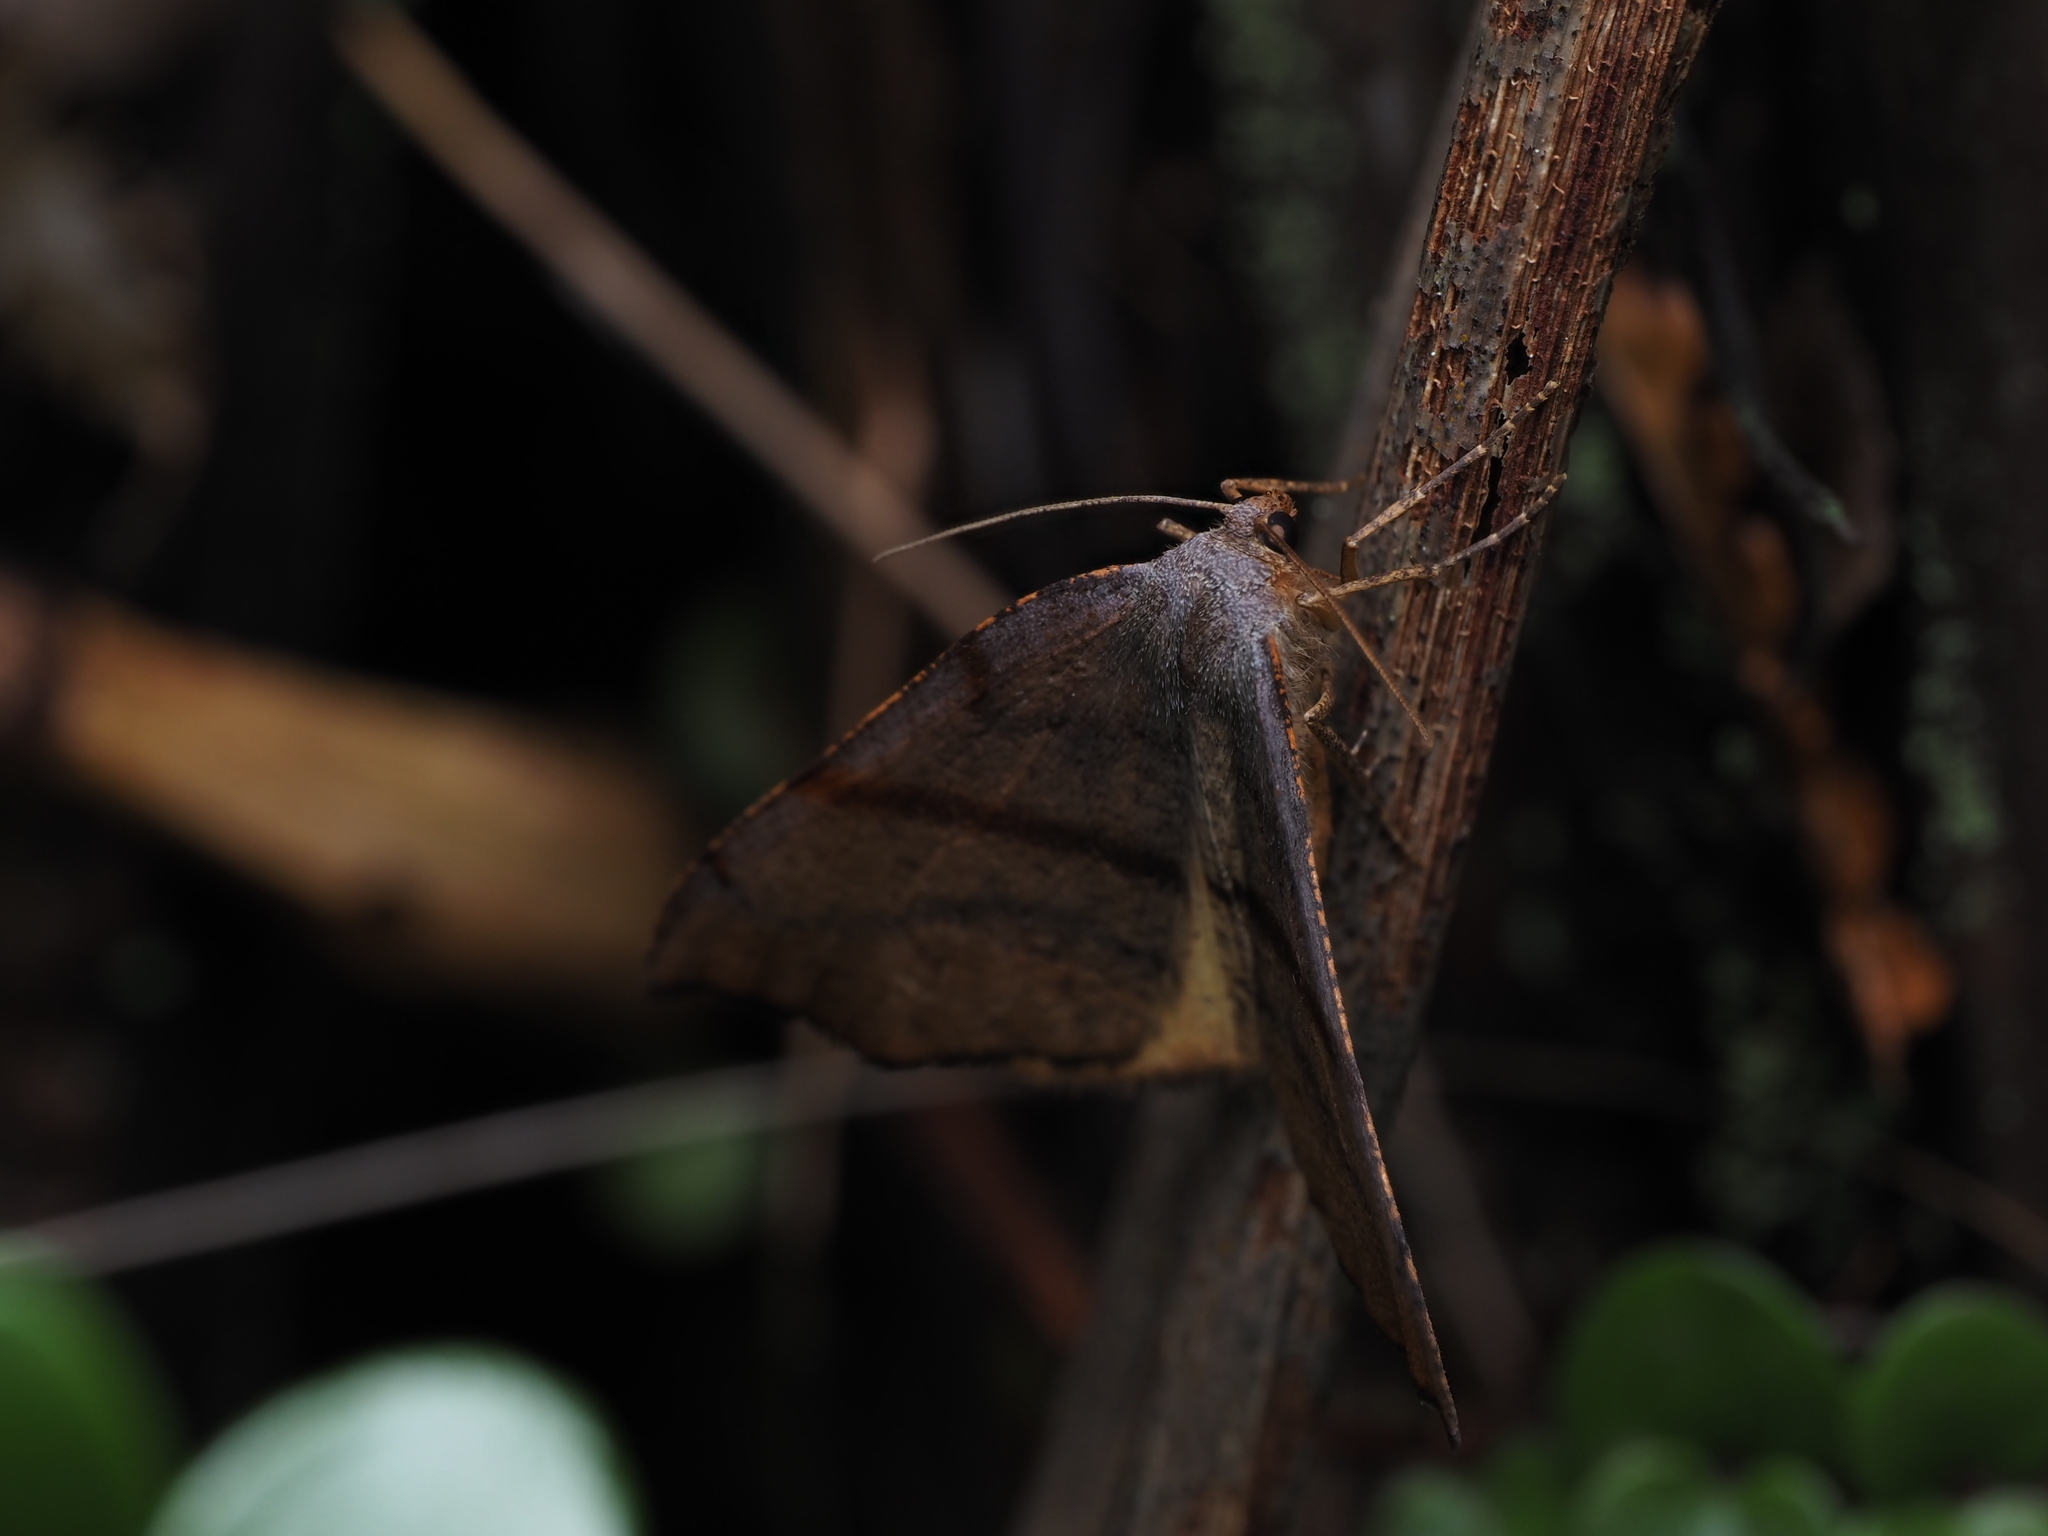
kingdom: Animalia
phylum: Arthropoda
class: Insecta
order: Lepidoptera
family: Geometridae
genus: Sestra
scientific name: Sestra flexata
